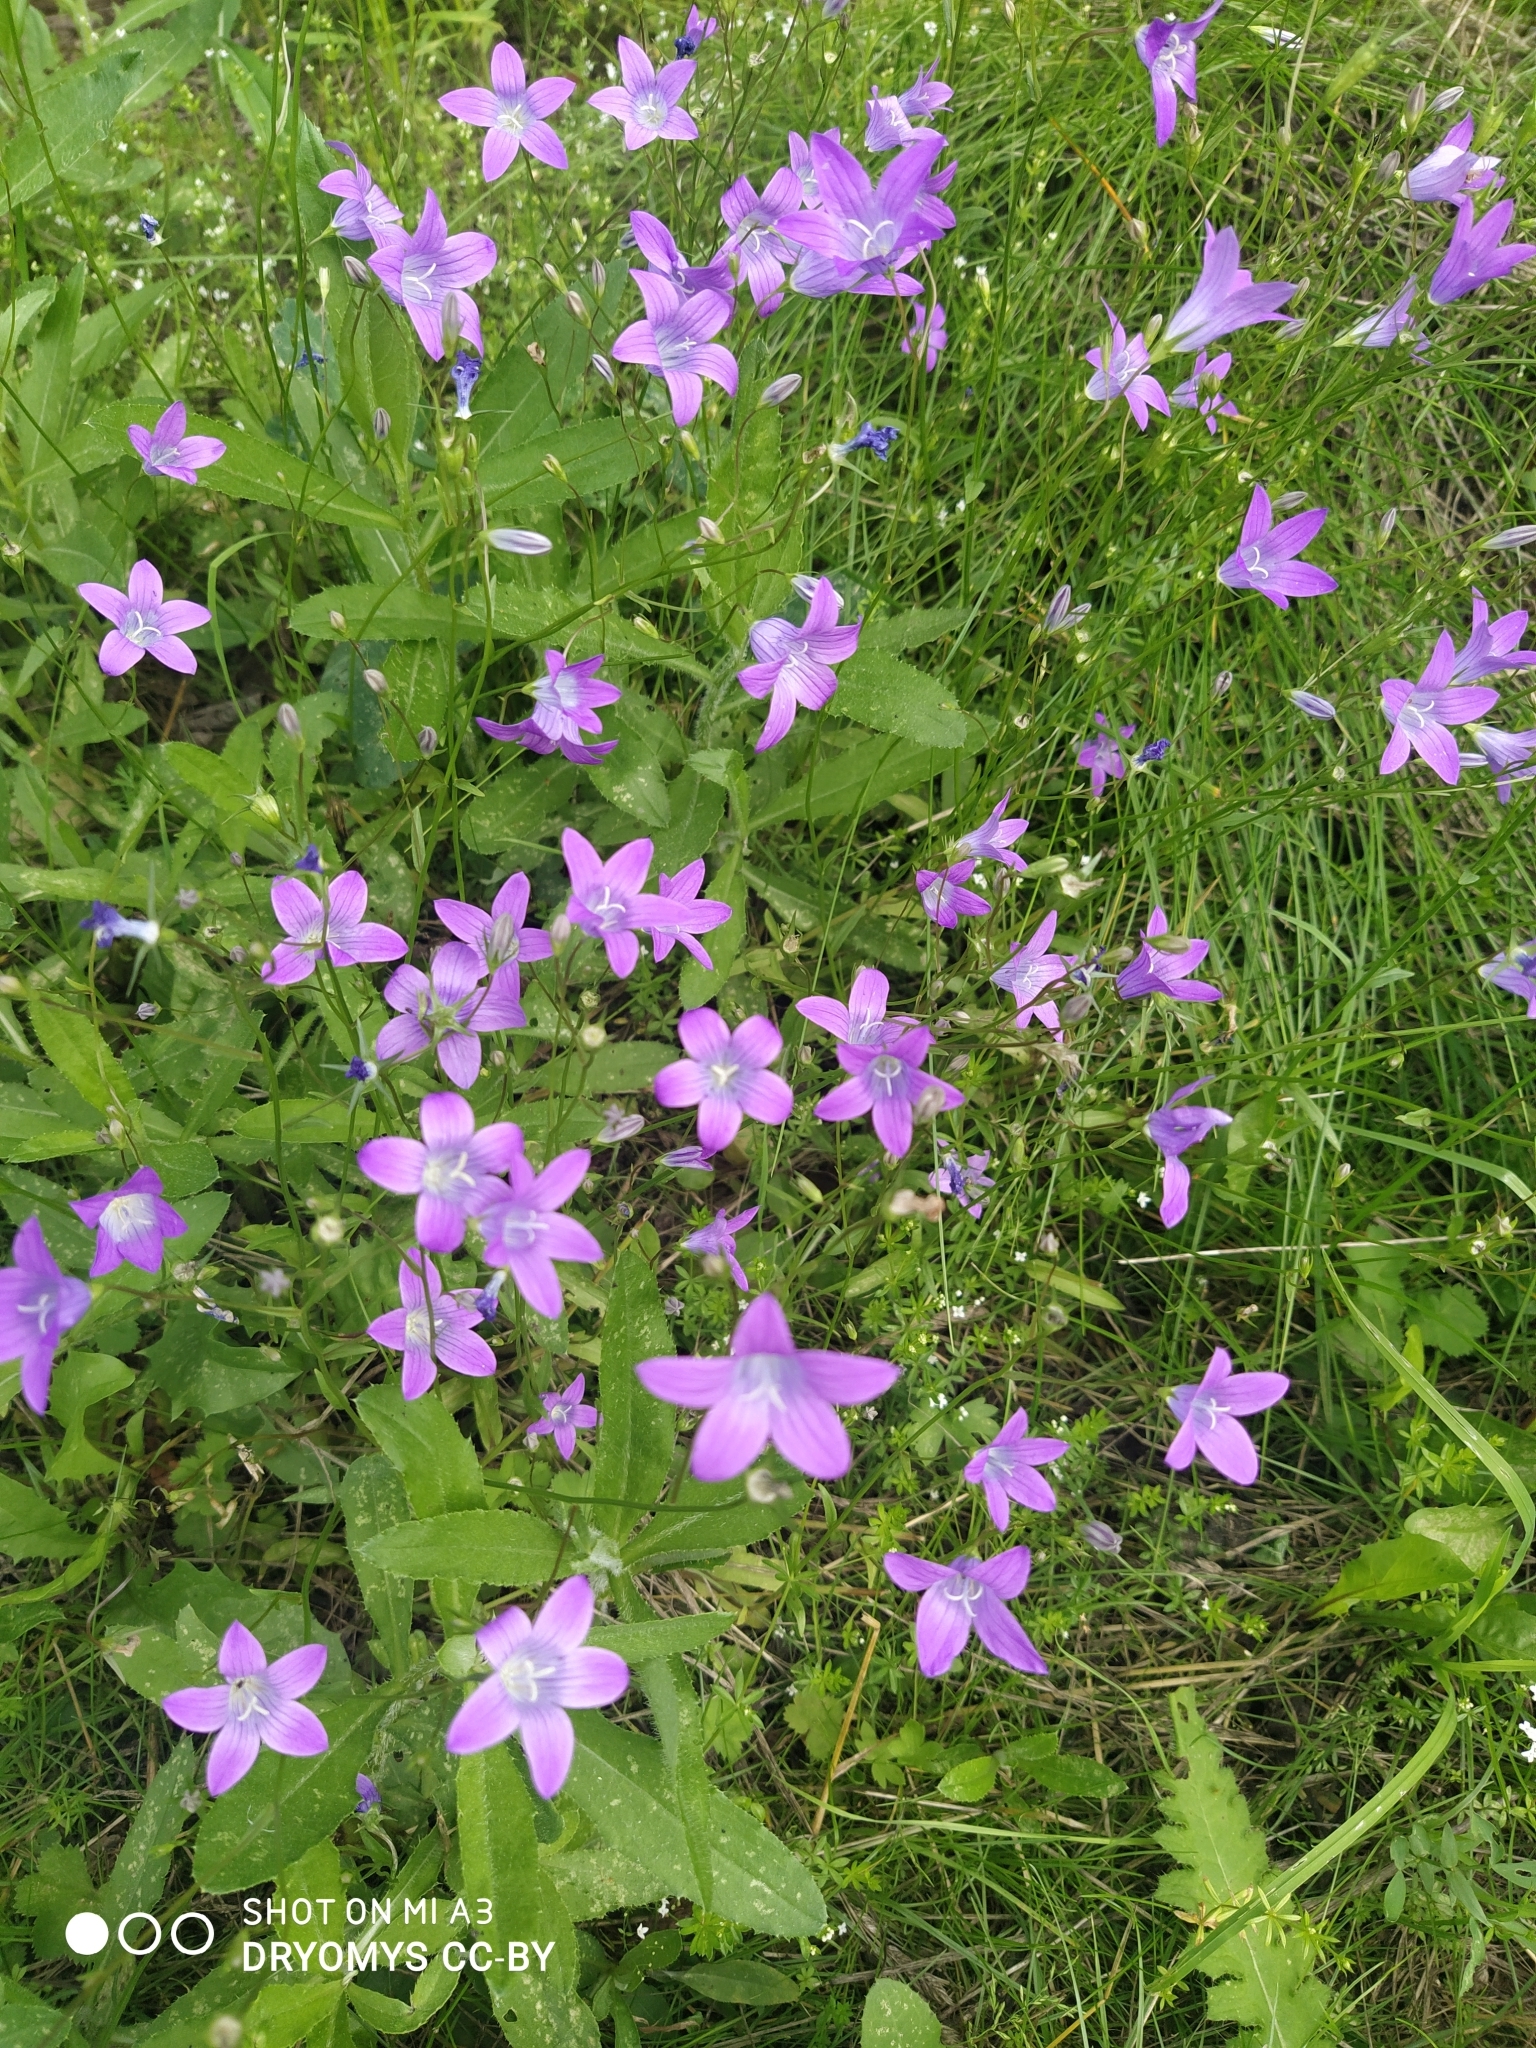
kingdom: Plantae
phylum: Tracheophyta
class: Magnoliopsida
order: Asterales
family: Campanulaceae
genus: Campanula
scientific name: Campanula patula
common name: Spreading bellflower
